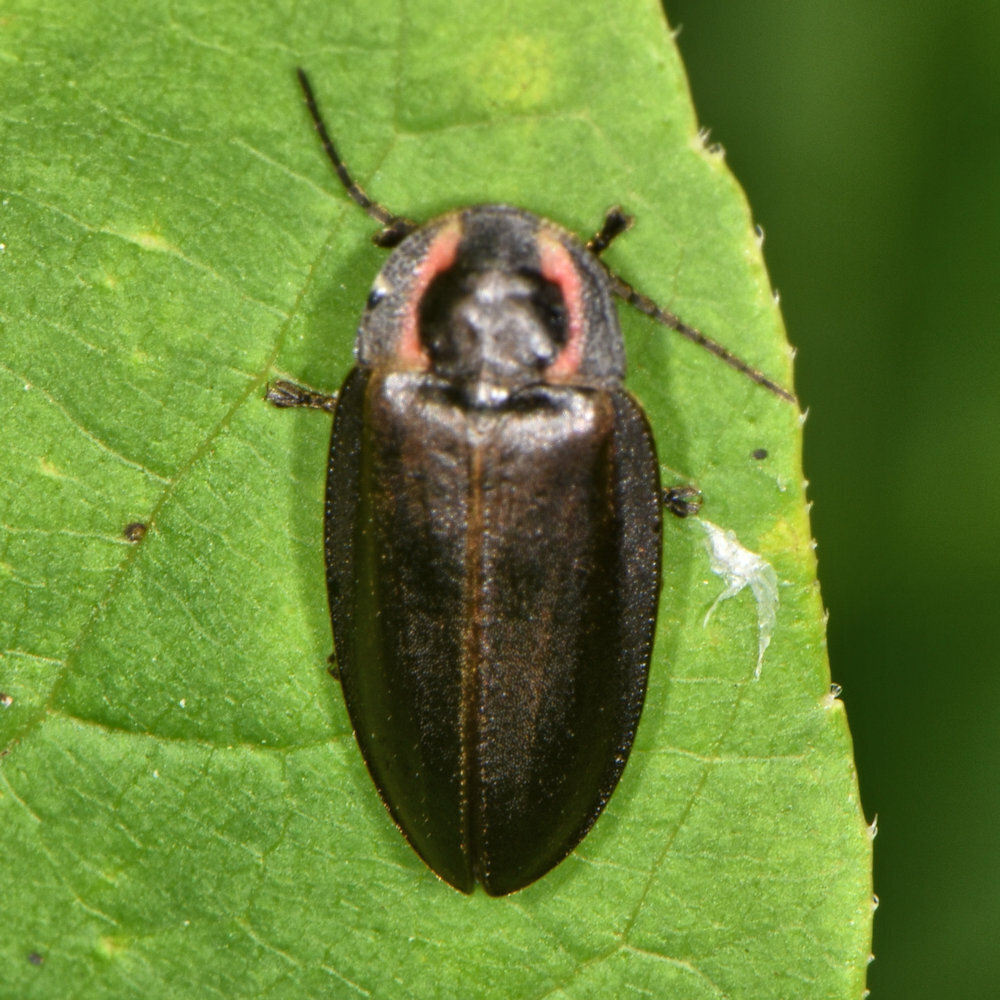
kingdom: Animalia
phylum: Arthropoda
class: Insecta
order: Coleoptera
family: Lampyridae
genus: Photinus
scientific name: Photinus corrusca
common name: Winter firefly
